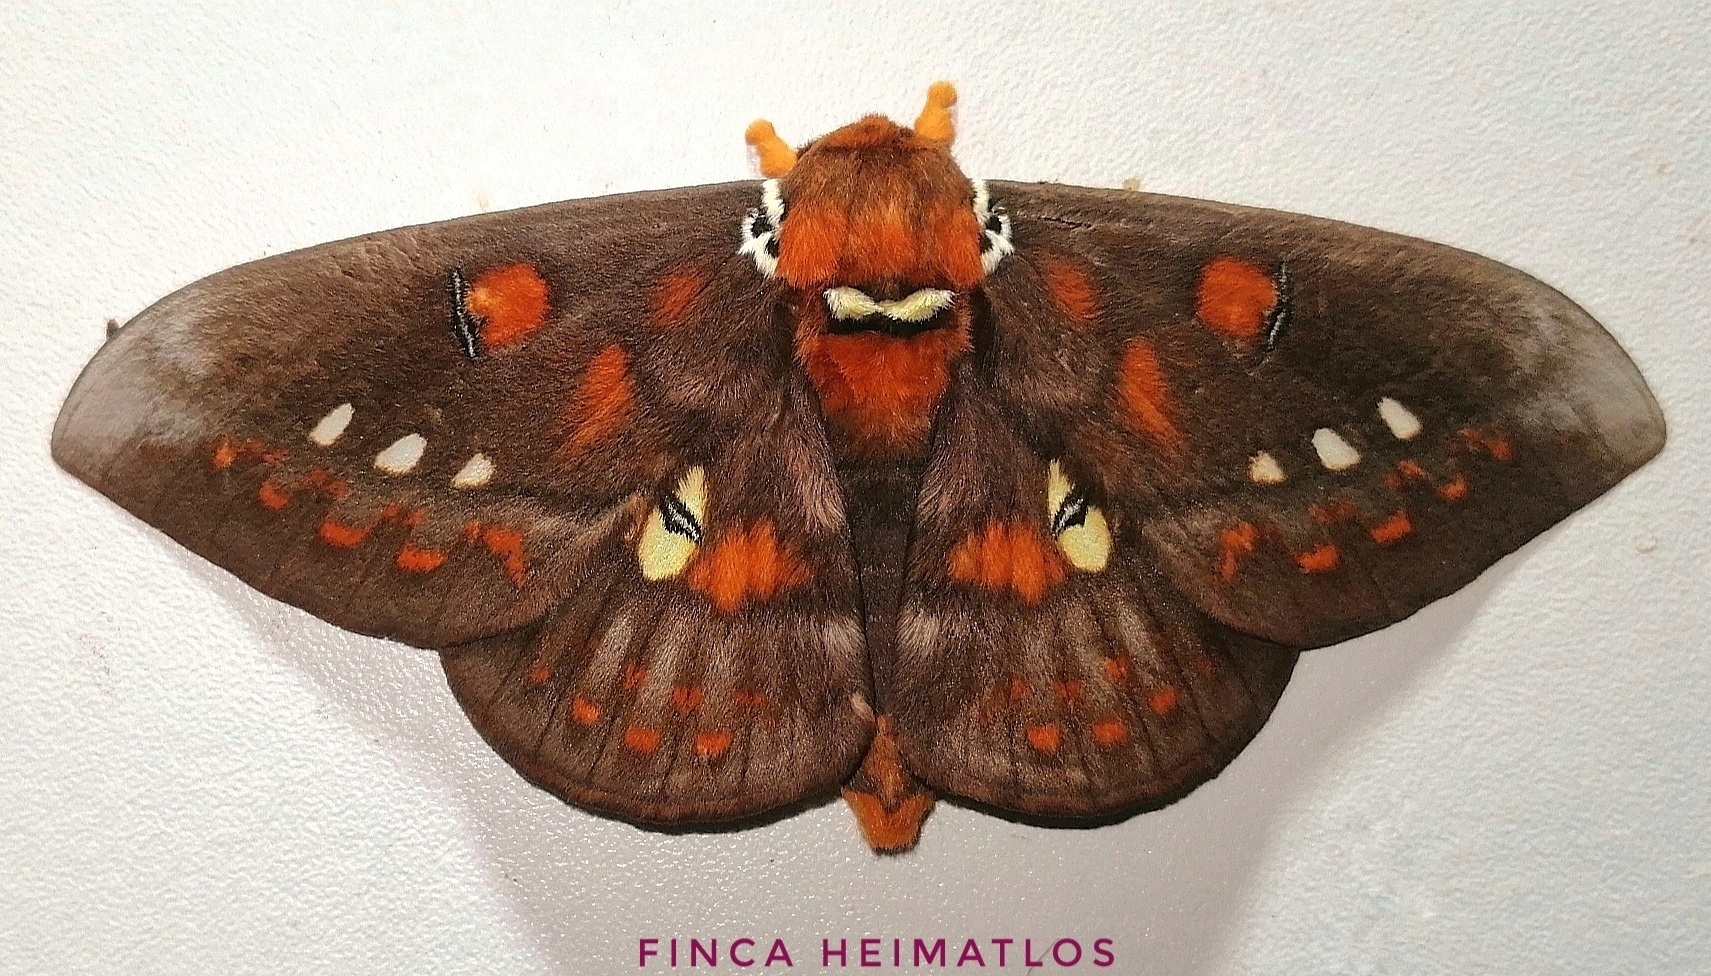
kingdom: Animalia
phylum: Arthropoda
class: Insecta
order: Lepidoptera
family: Saturniidae
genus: Procitheronia
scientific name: Procitheronia fenestrata
